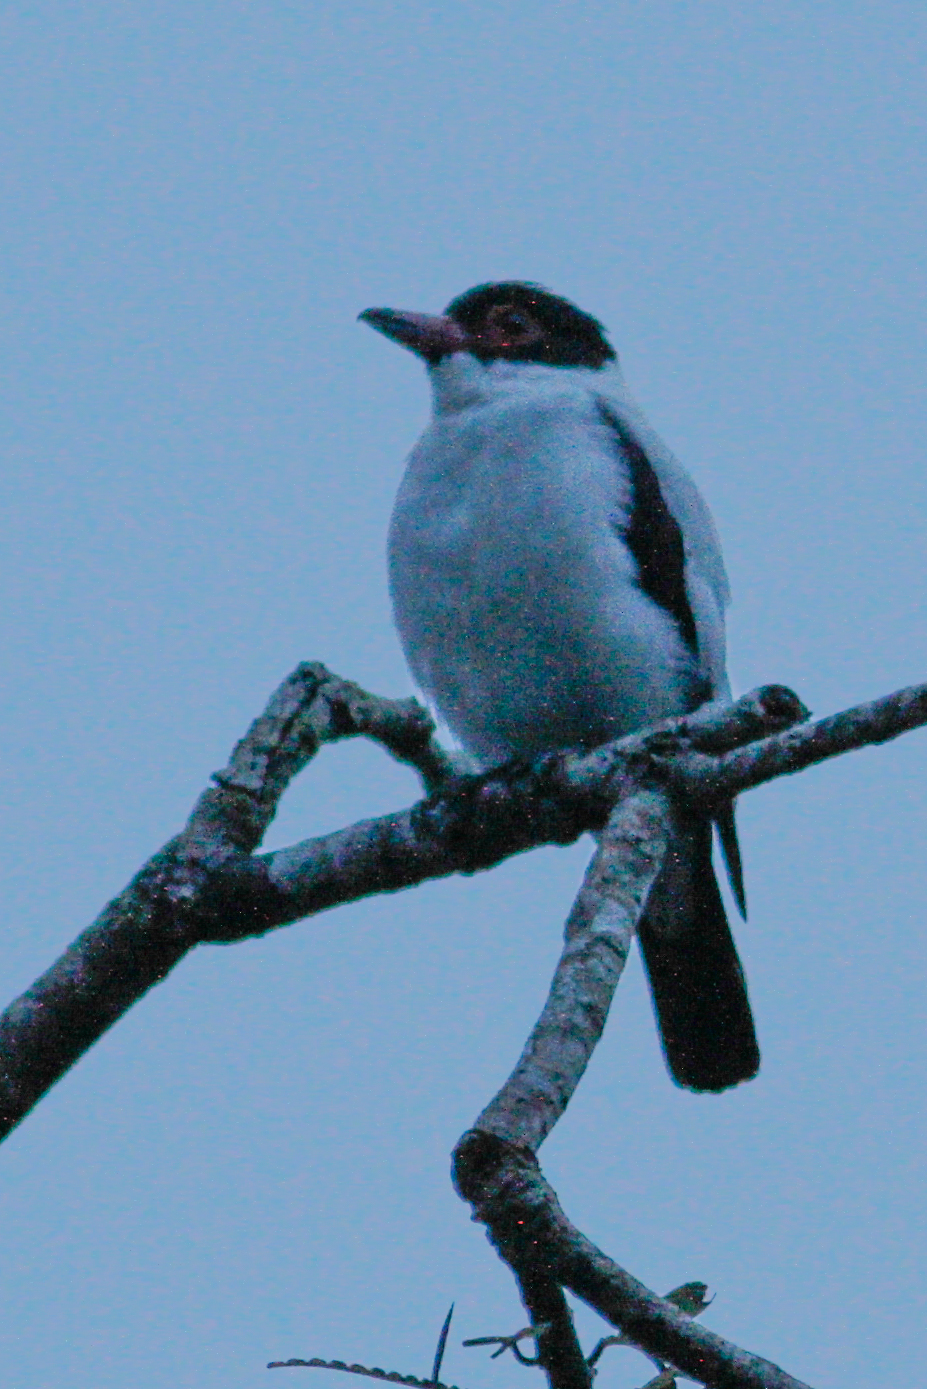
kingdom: Animalia
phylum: Chordata
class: Aves
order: Passeriformes
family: Cotingidae
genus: Tityra
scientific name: Tityra cayana
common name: Black-tailed tityra
